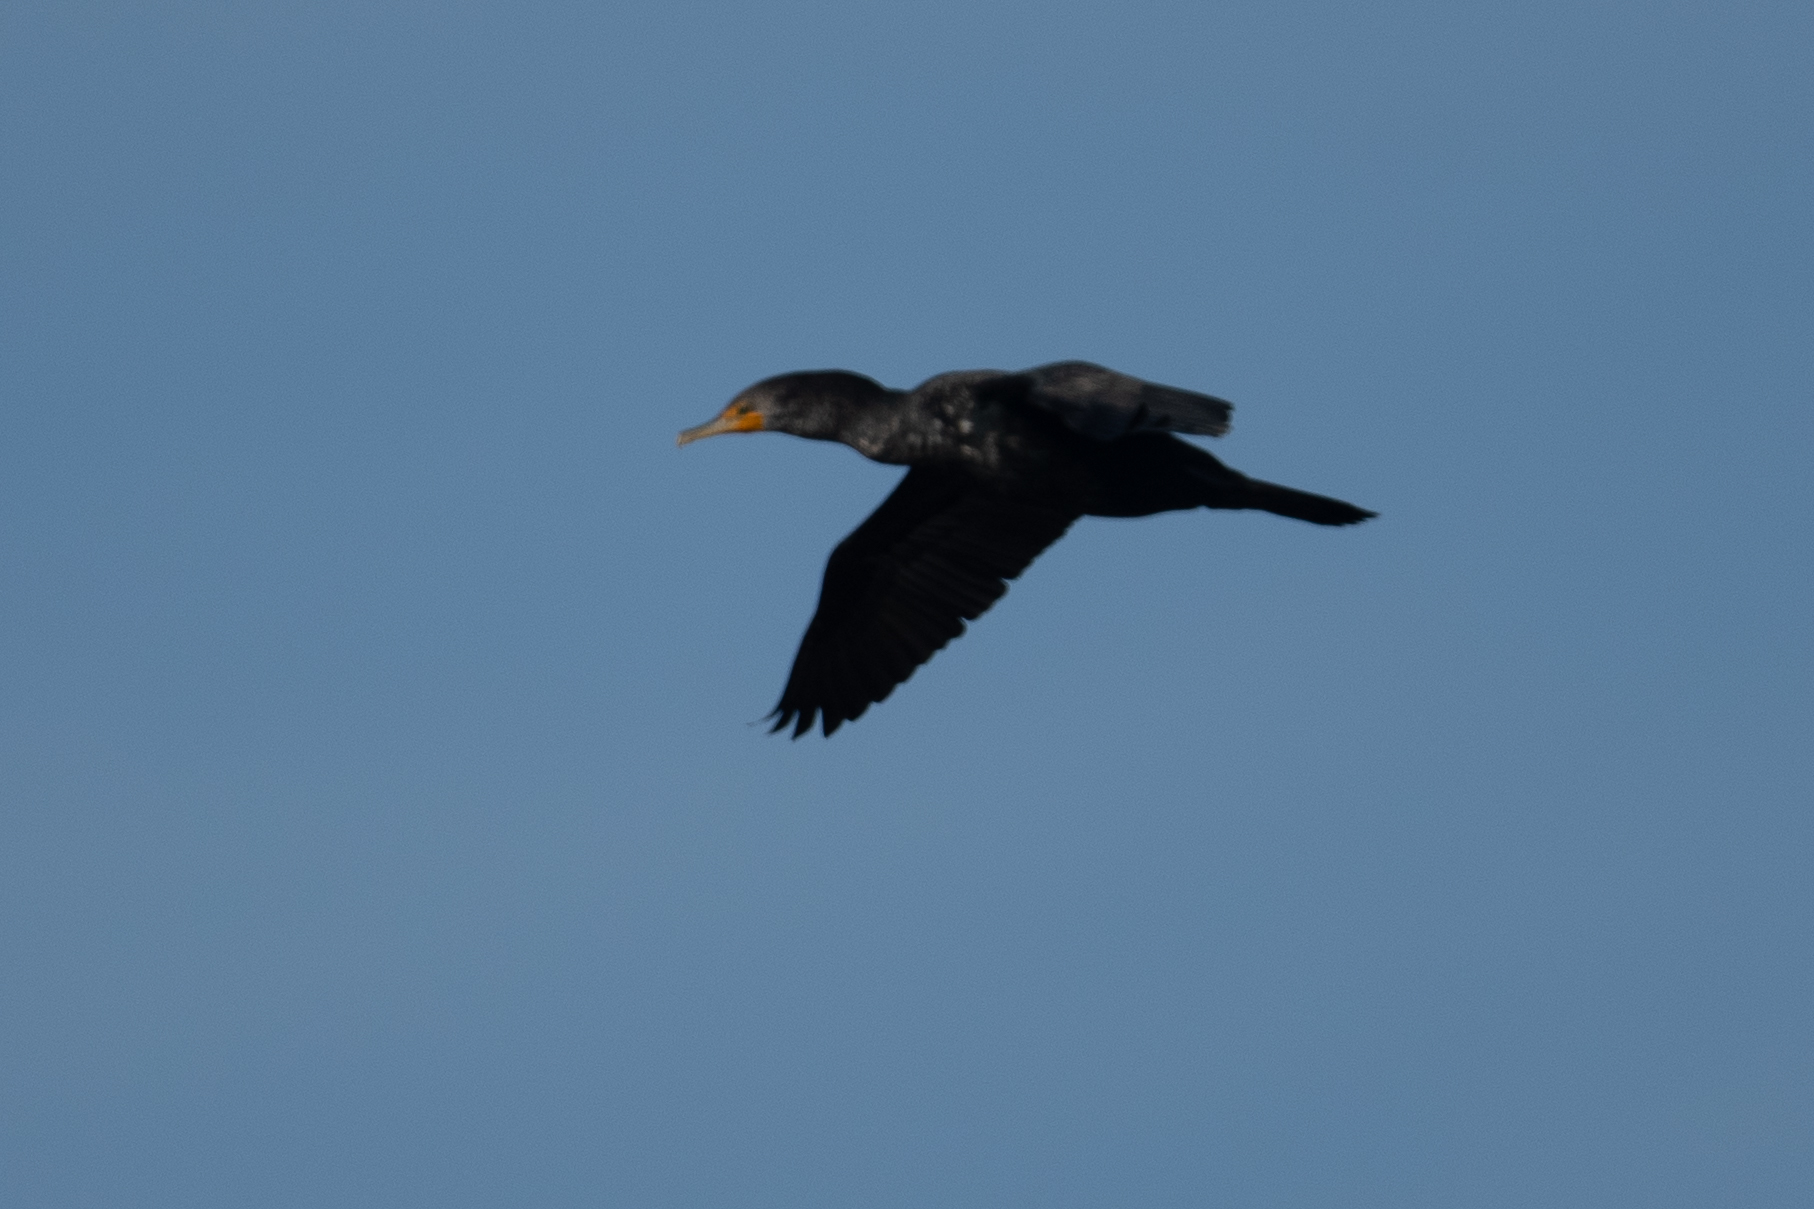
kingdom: Animalia
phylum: Chordata
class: Aves
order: Suliformes
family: Phalacrocoracidae
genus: Phalacrocorax
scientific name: Phalacrocorax auritus
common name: Double-crested cormorant
